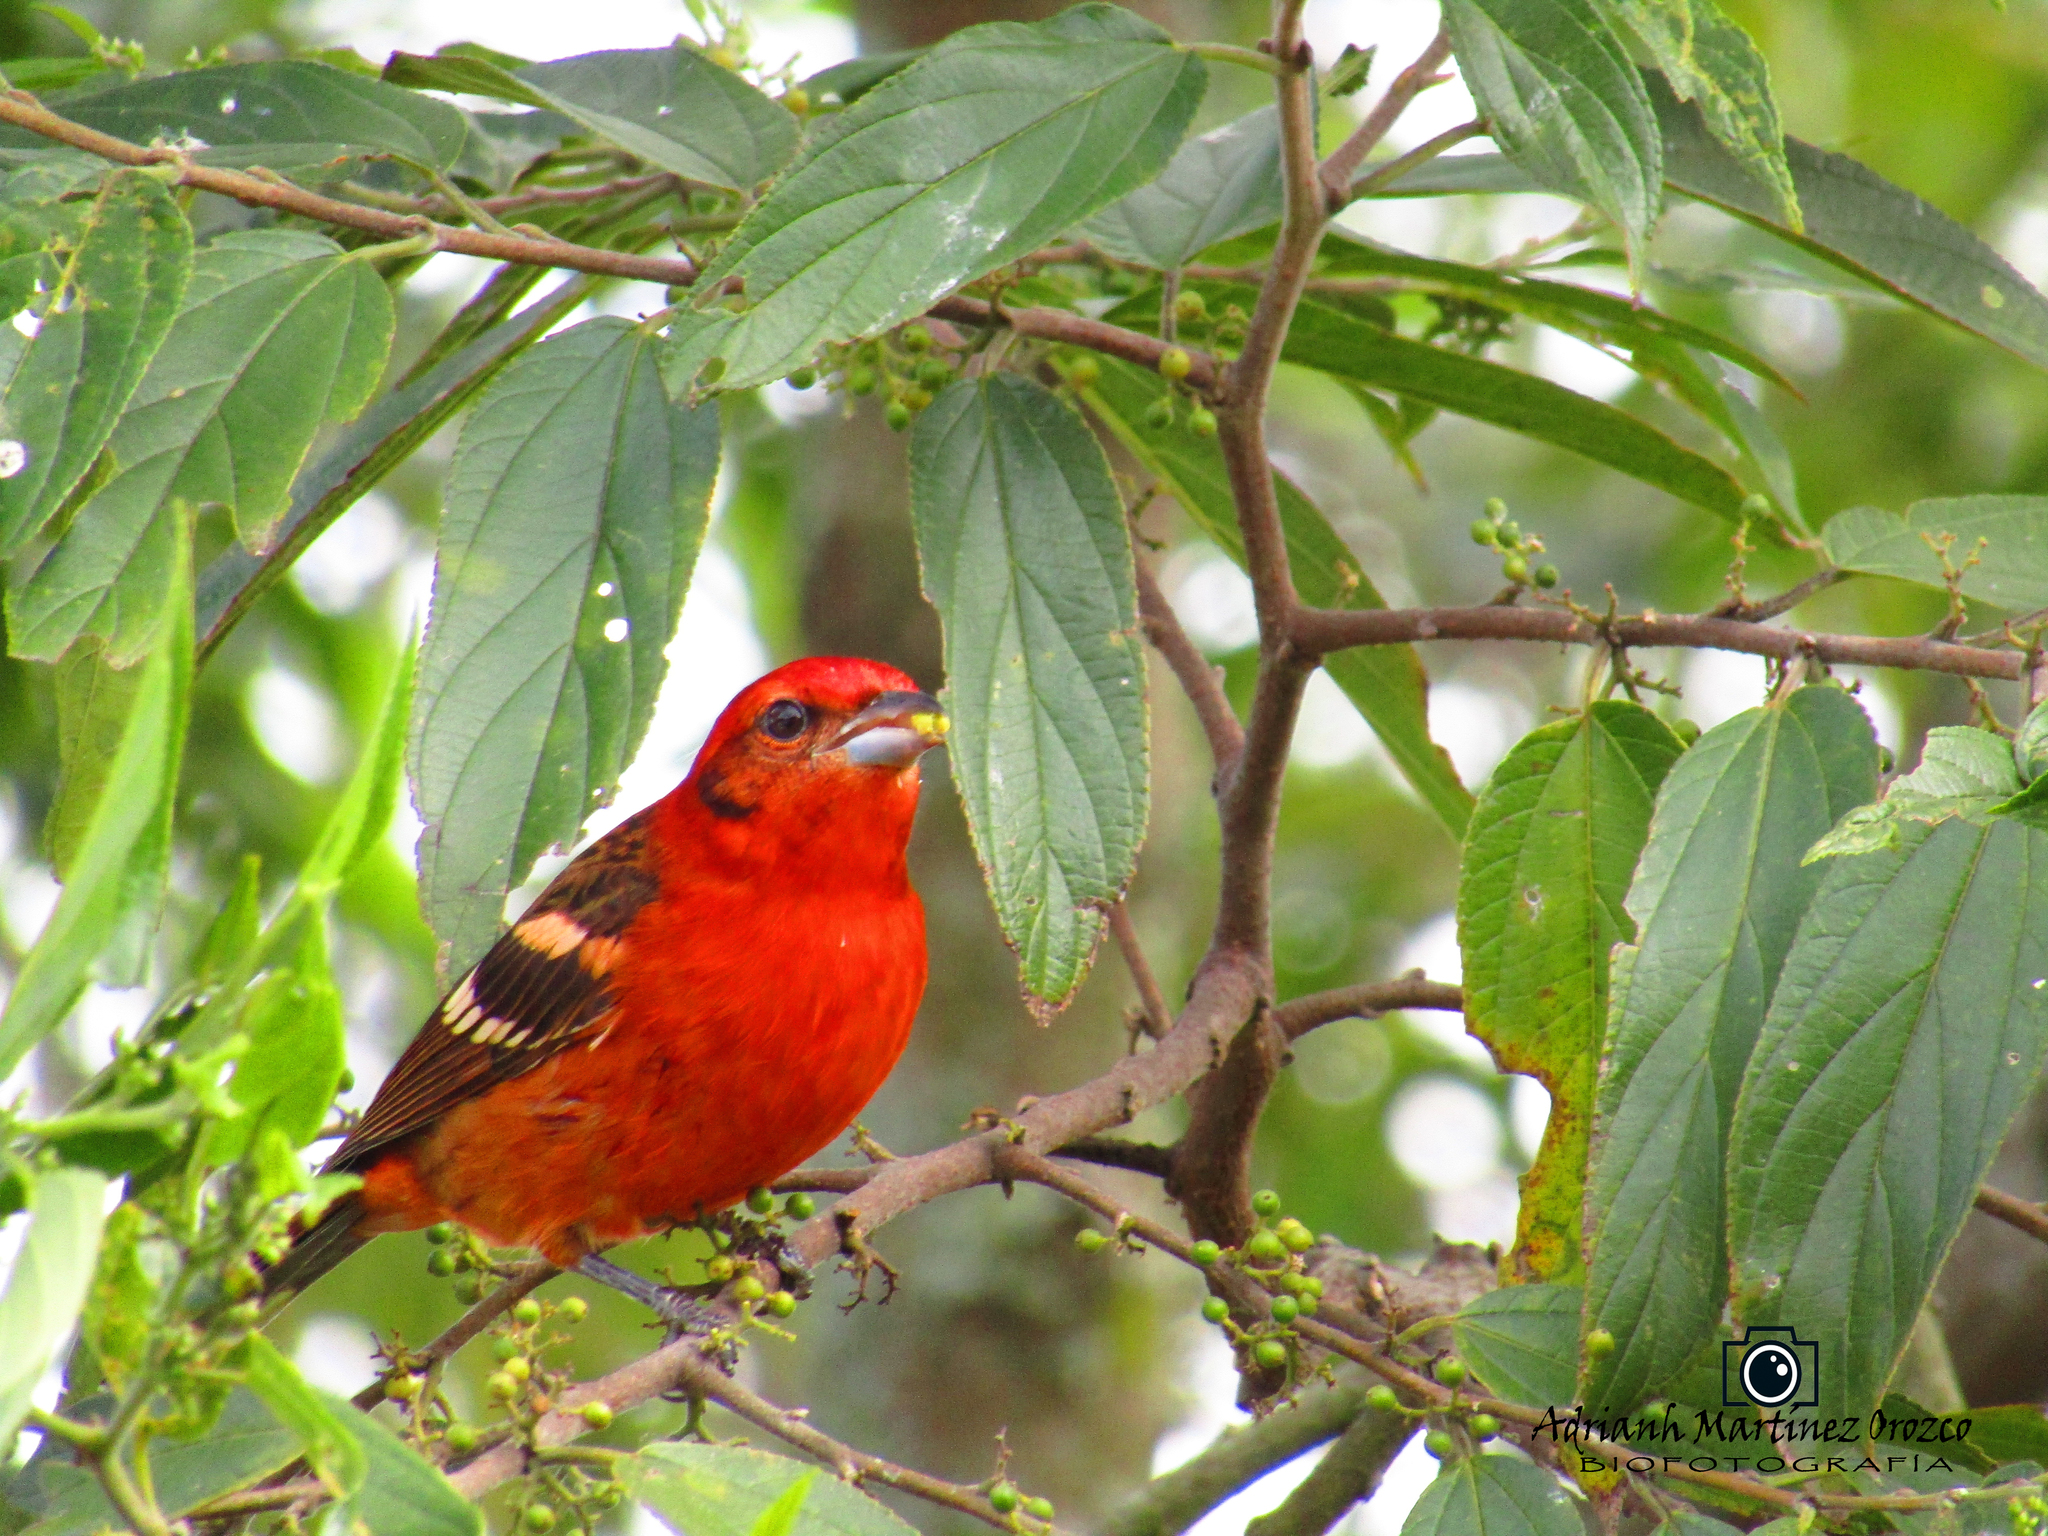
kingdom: Animalia
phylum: Chordata
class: Aves
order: Passeriformes
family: Cardinalidae
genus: Piranga
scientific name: Piranga bidentata
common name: Flame-colored tanager
